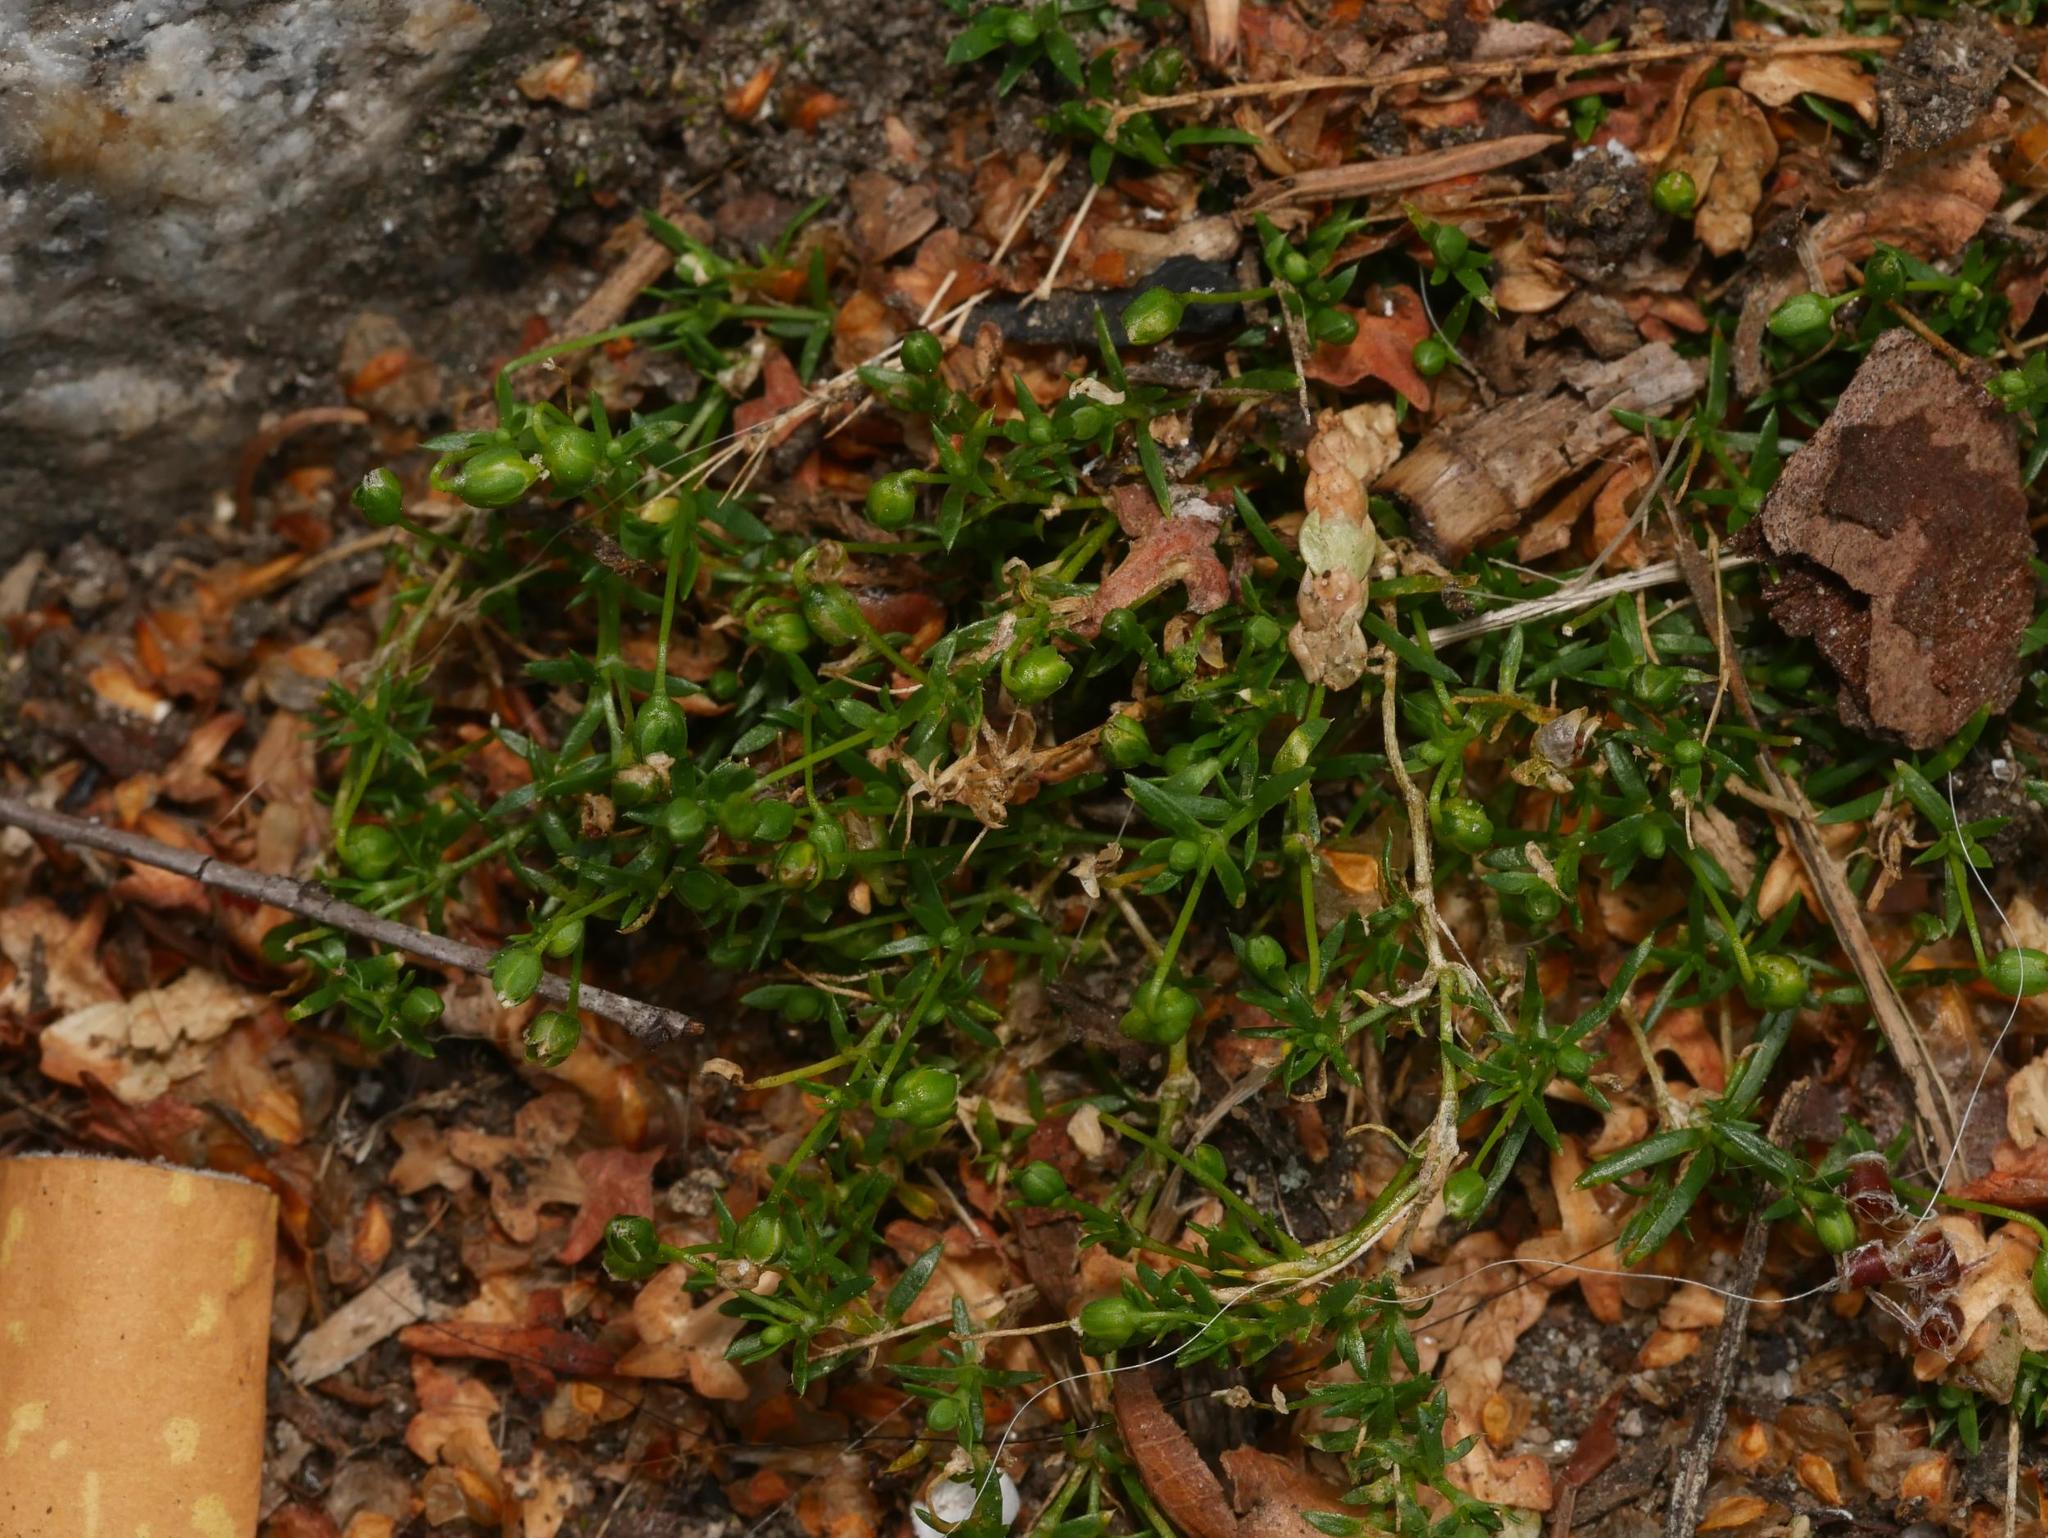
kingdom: Plantae
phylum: Tracheophyta
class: Magnoliopsida
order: Caryophyllales
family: Caryophyllaceae
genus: Sagina
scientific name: Sagina procumbens
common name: Procumbent pearlwort
